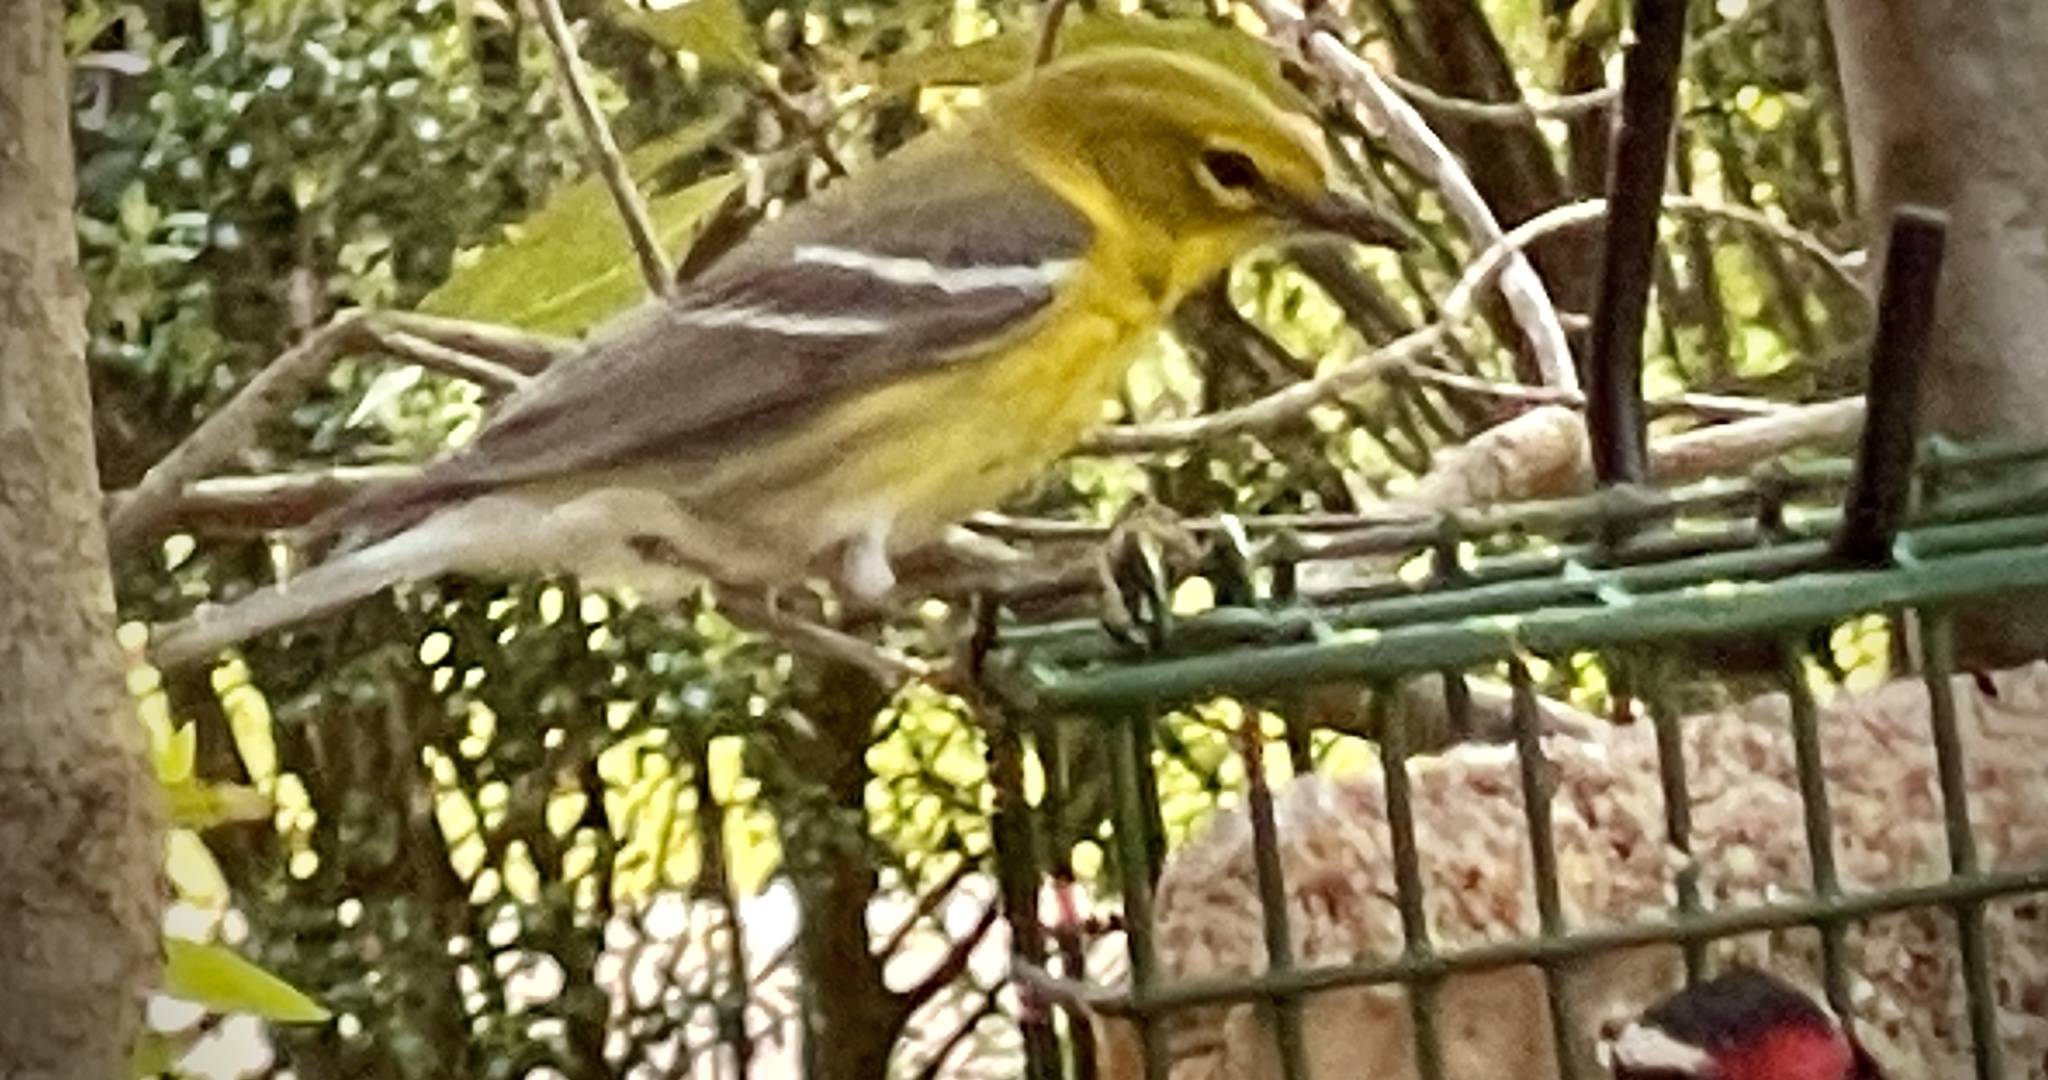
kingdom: Animalia
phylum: Chordata
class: Aves
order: Passeriformes
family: Parulidae
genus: Setophaga
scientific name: Setophaga pinus
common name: Pine warbler
